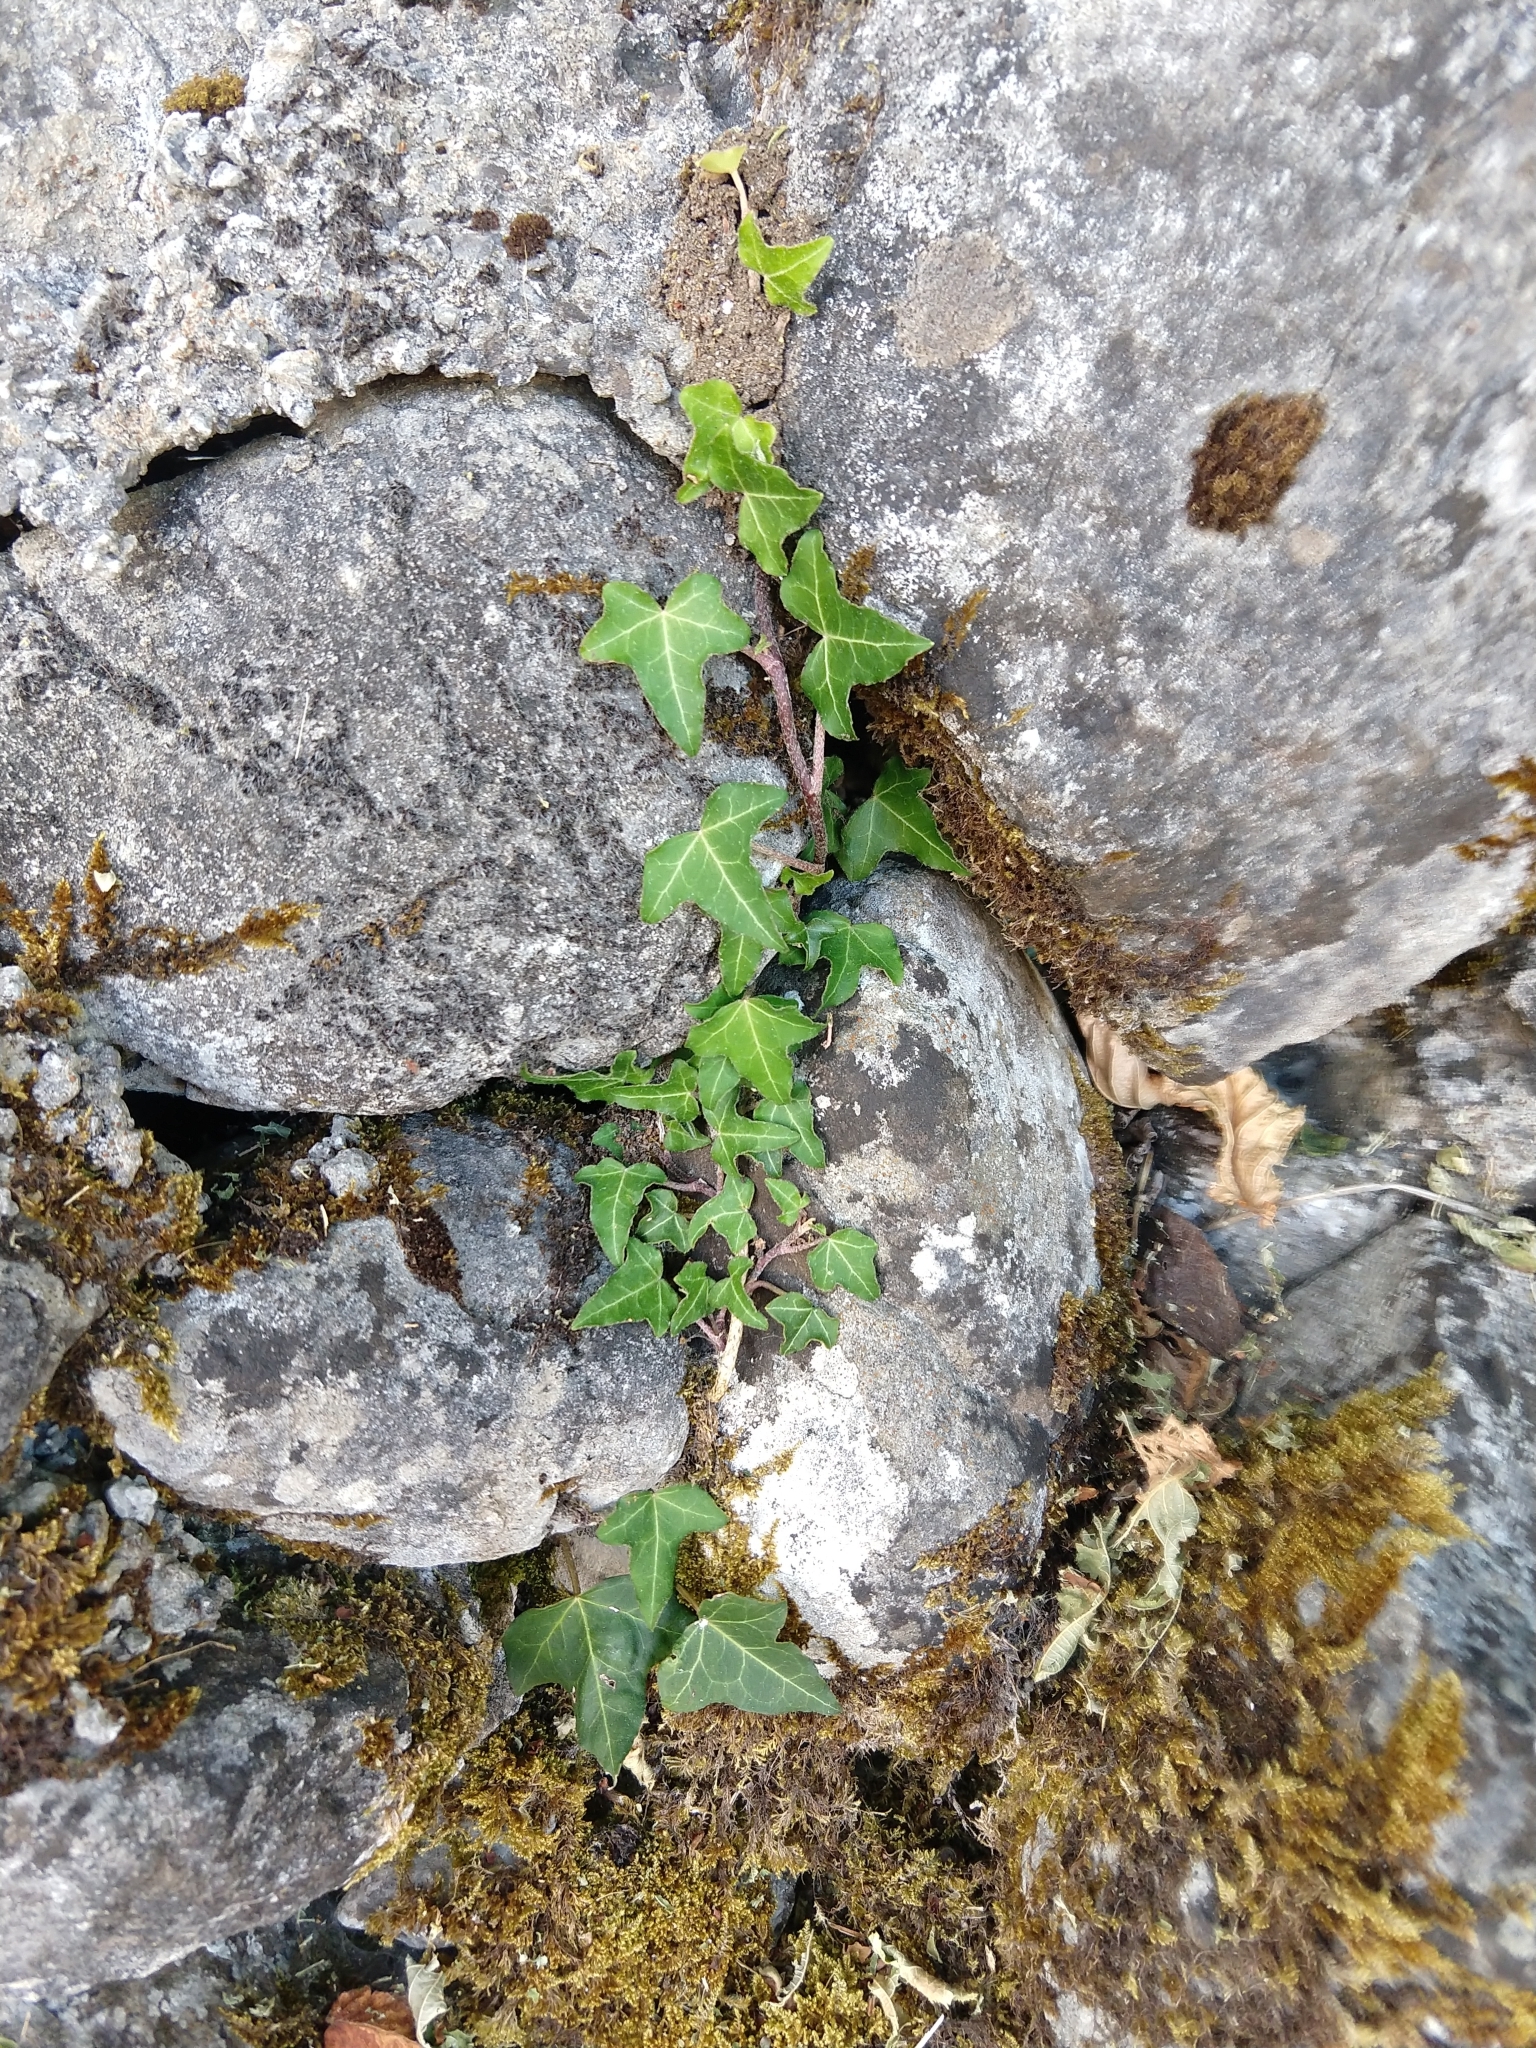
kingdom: Plantae
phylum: Tracheophyta
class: Magnoliopsida
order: Apiales
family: Araliaceae
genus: Hedera
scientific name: Hedera helix
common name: Ivy
